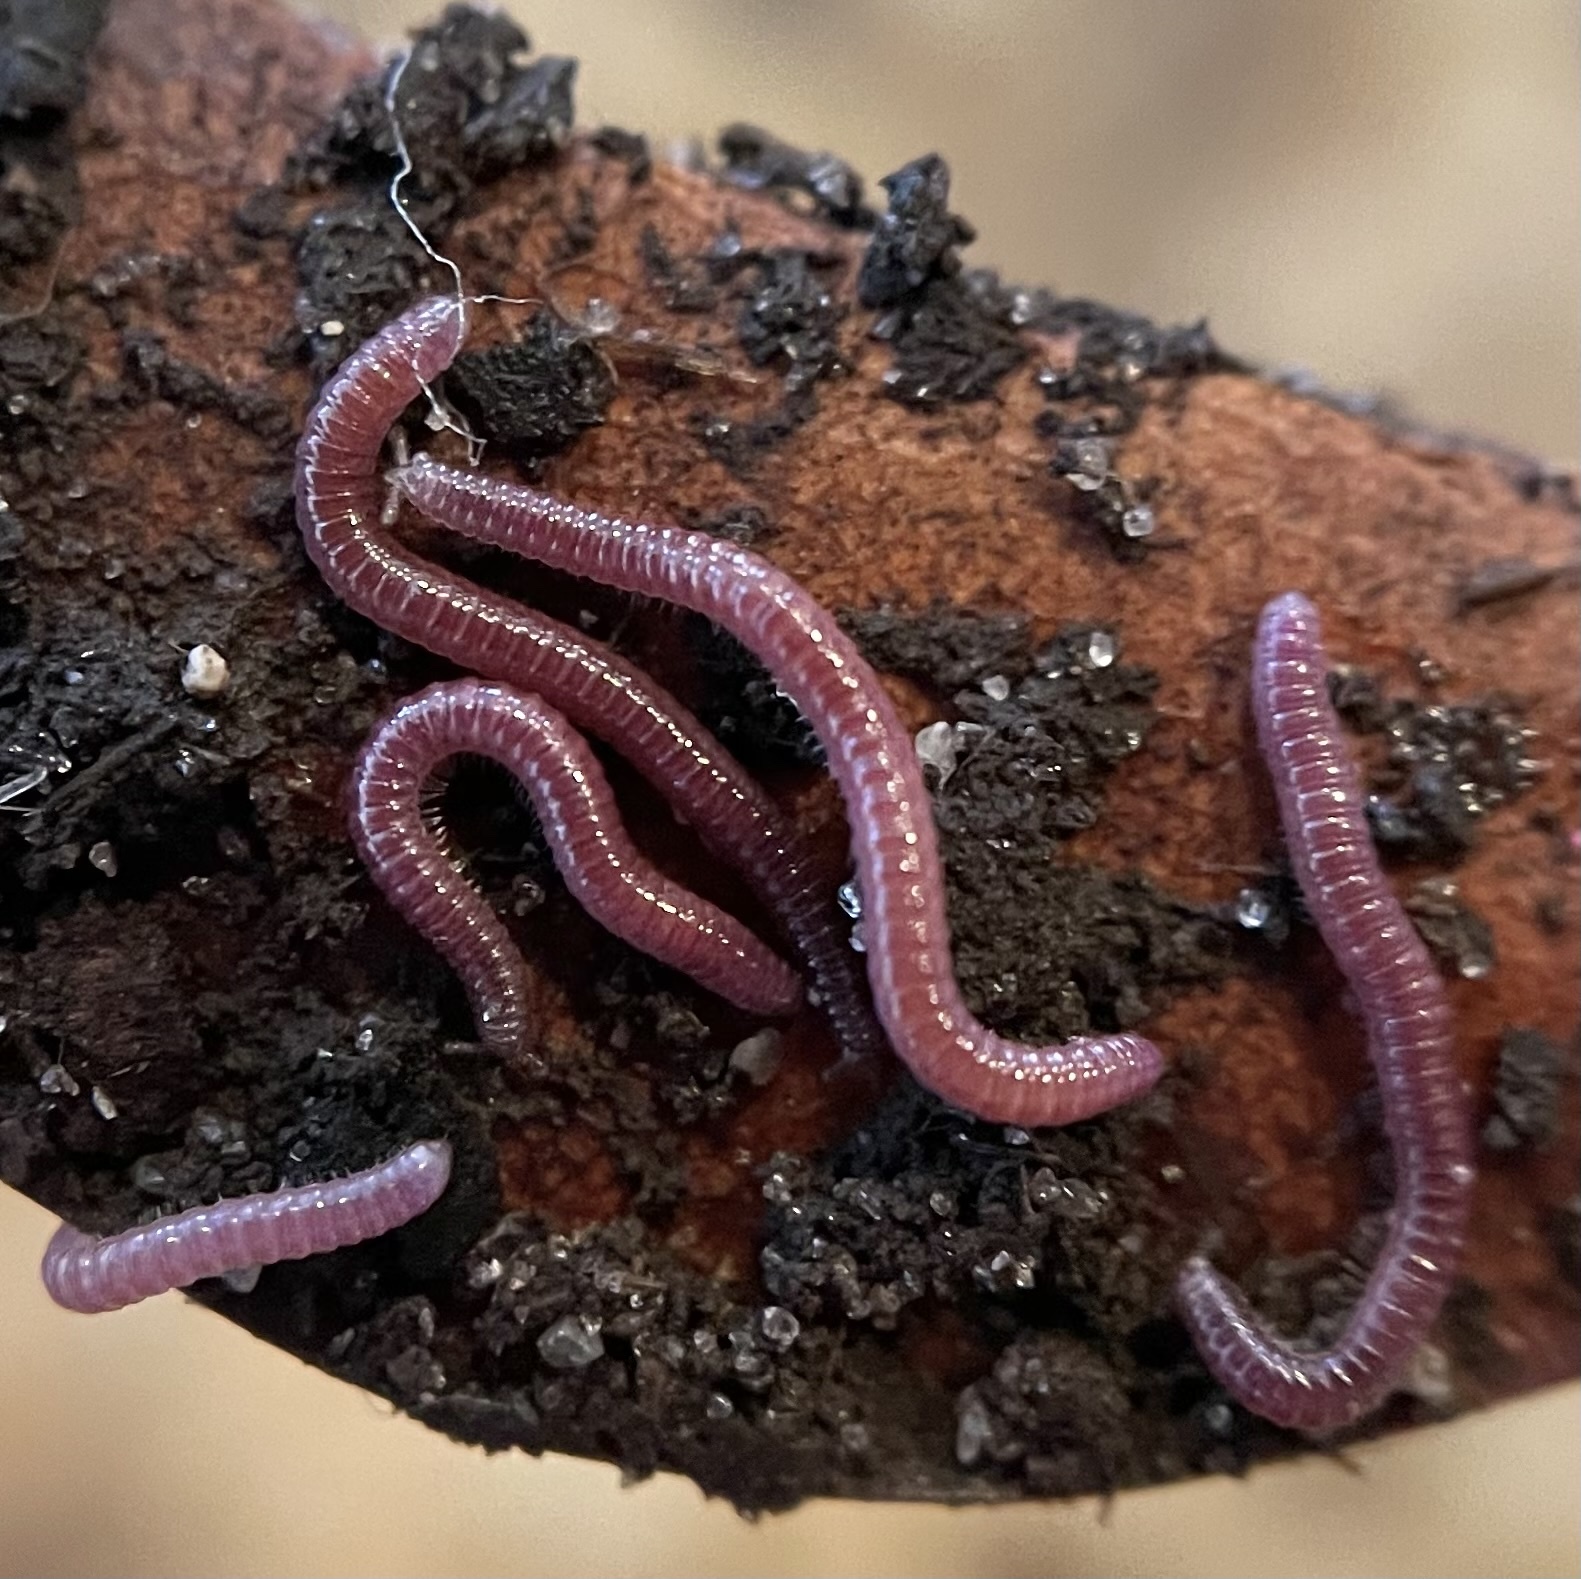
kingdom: Animalia
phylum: Arthropoda
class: Diplopoda
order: Polyzoniida
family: Siphonotidae
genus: Rhinotus
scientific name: Rhinotus purpureus
